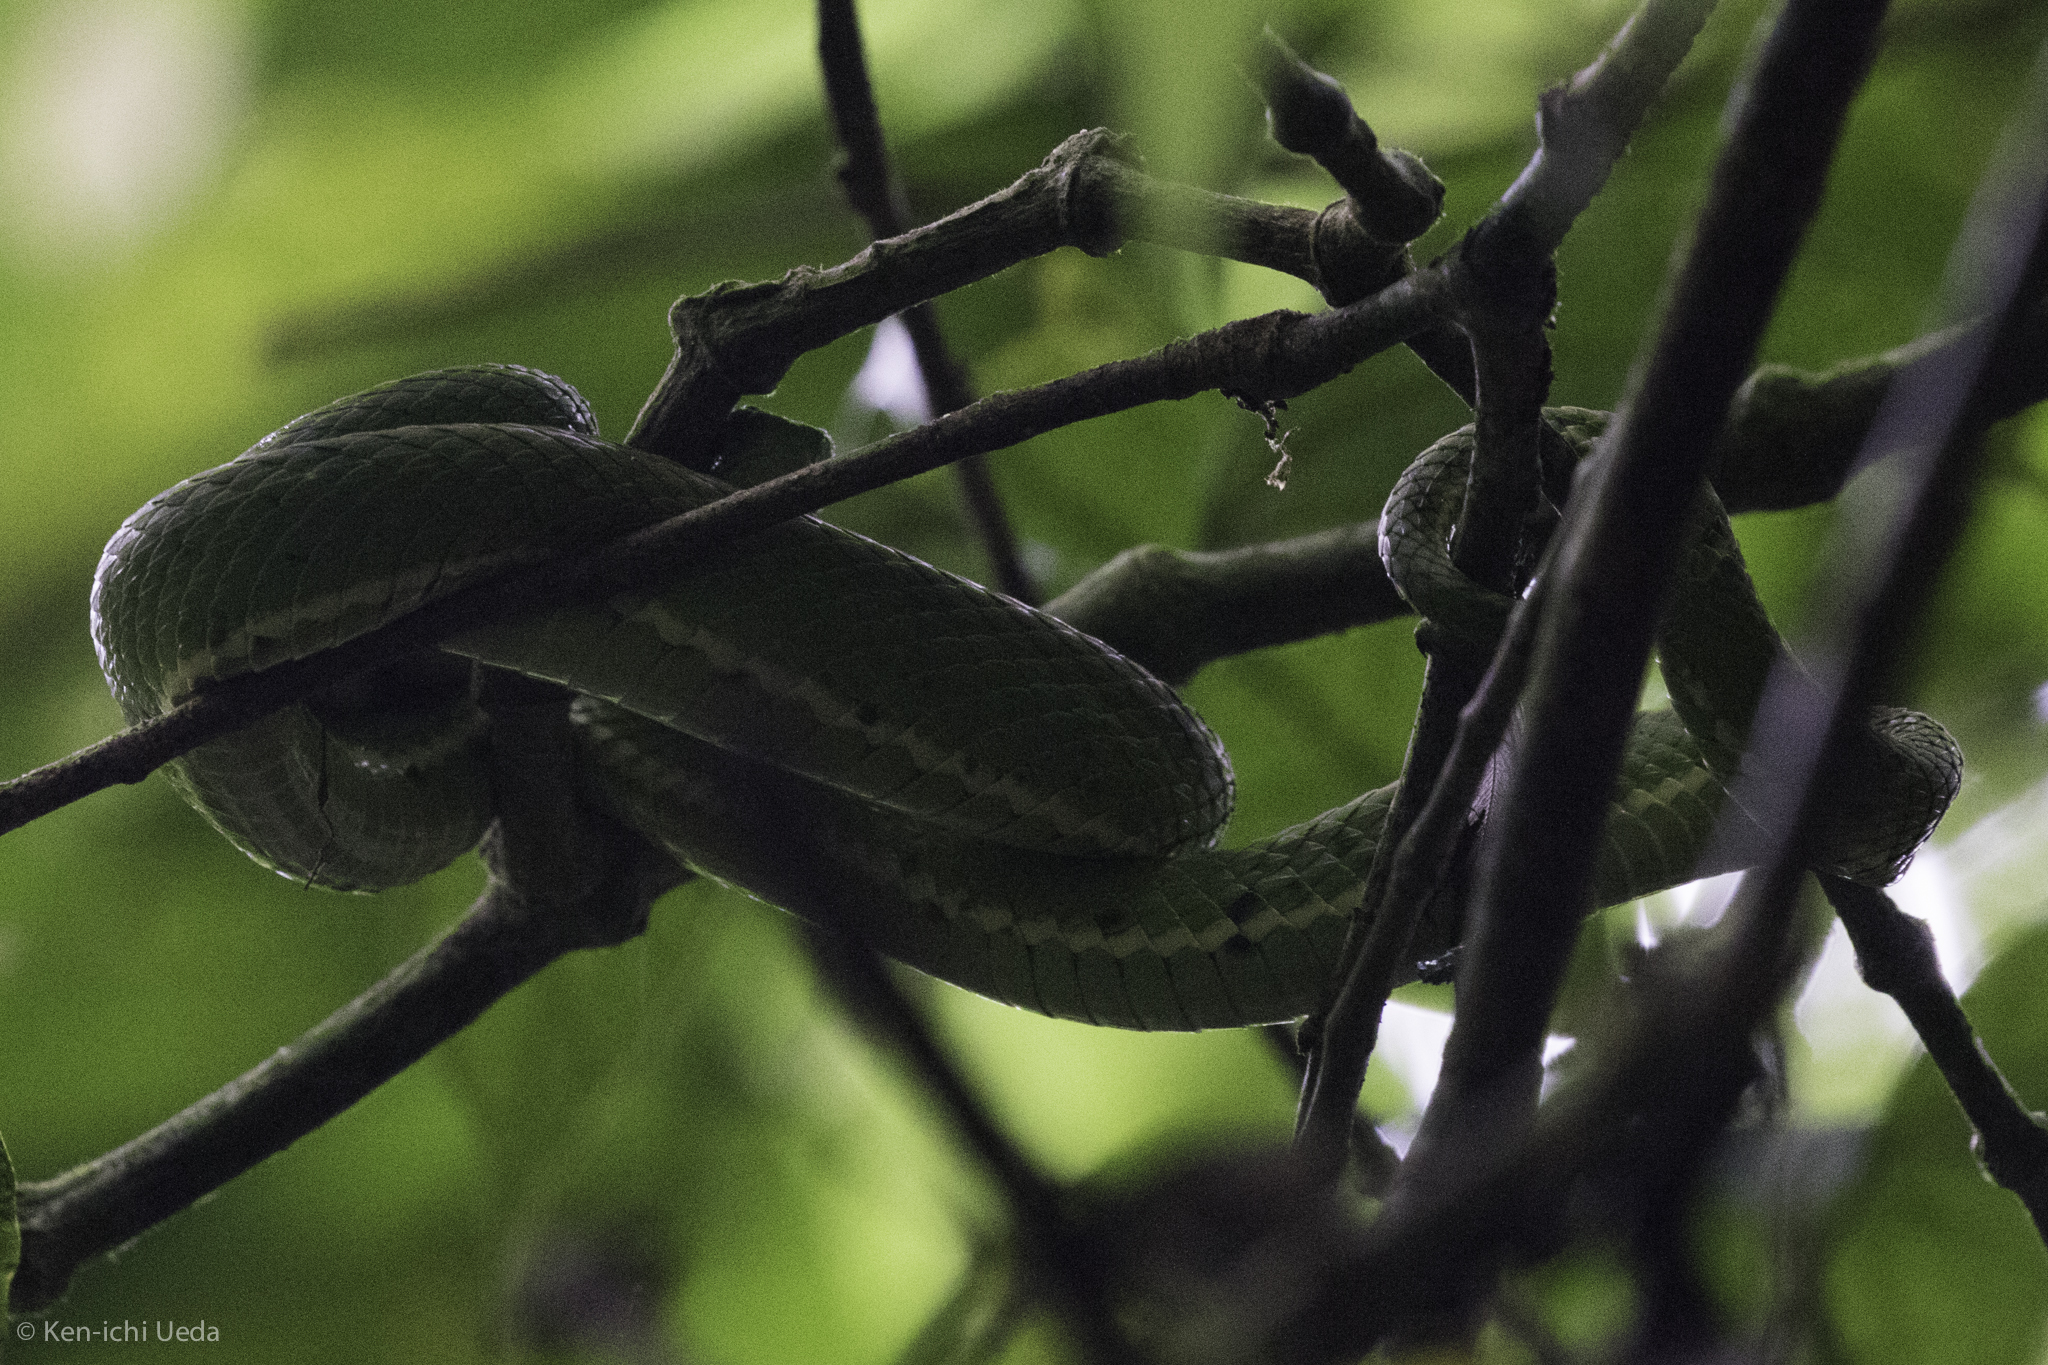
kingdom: Animalia
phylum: Chordata
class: Squamata
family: Viperidae
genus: Bothriechis
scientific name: Bothriechis lateralis
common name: Coffee palm viper
